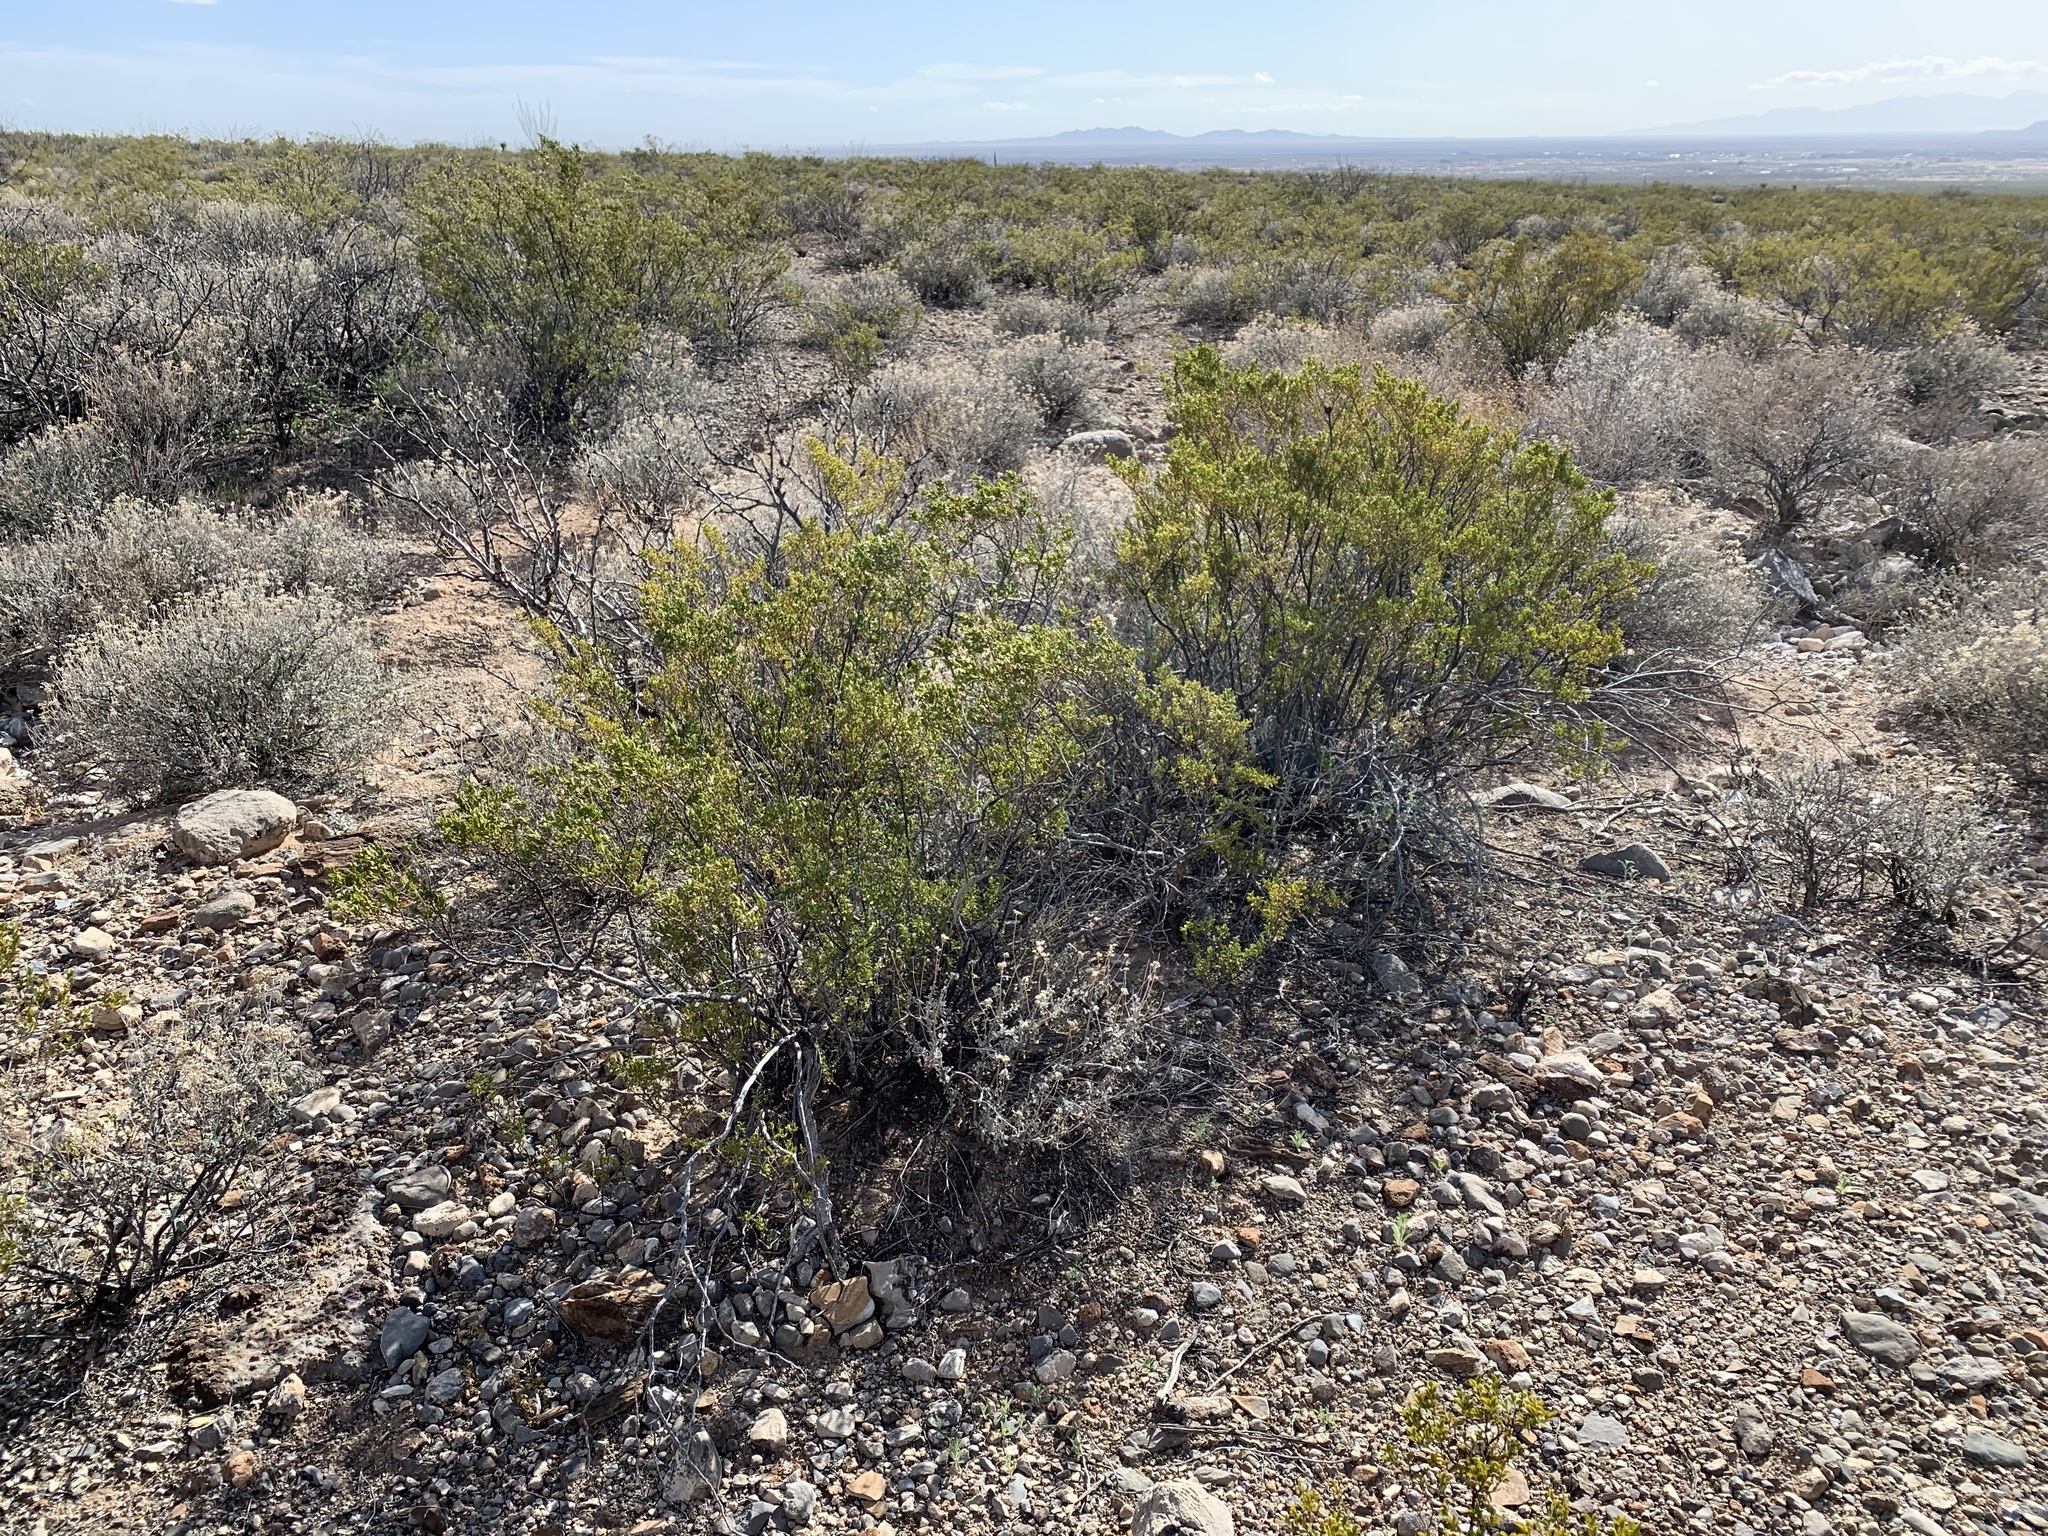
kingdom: Plantae
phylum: Tracheophyta
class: Magnoliopsida
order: Zygophyllales
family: Zygophyllaceae
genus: Larrea
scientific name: Larrea tridentata
